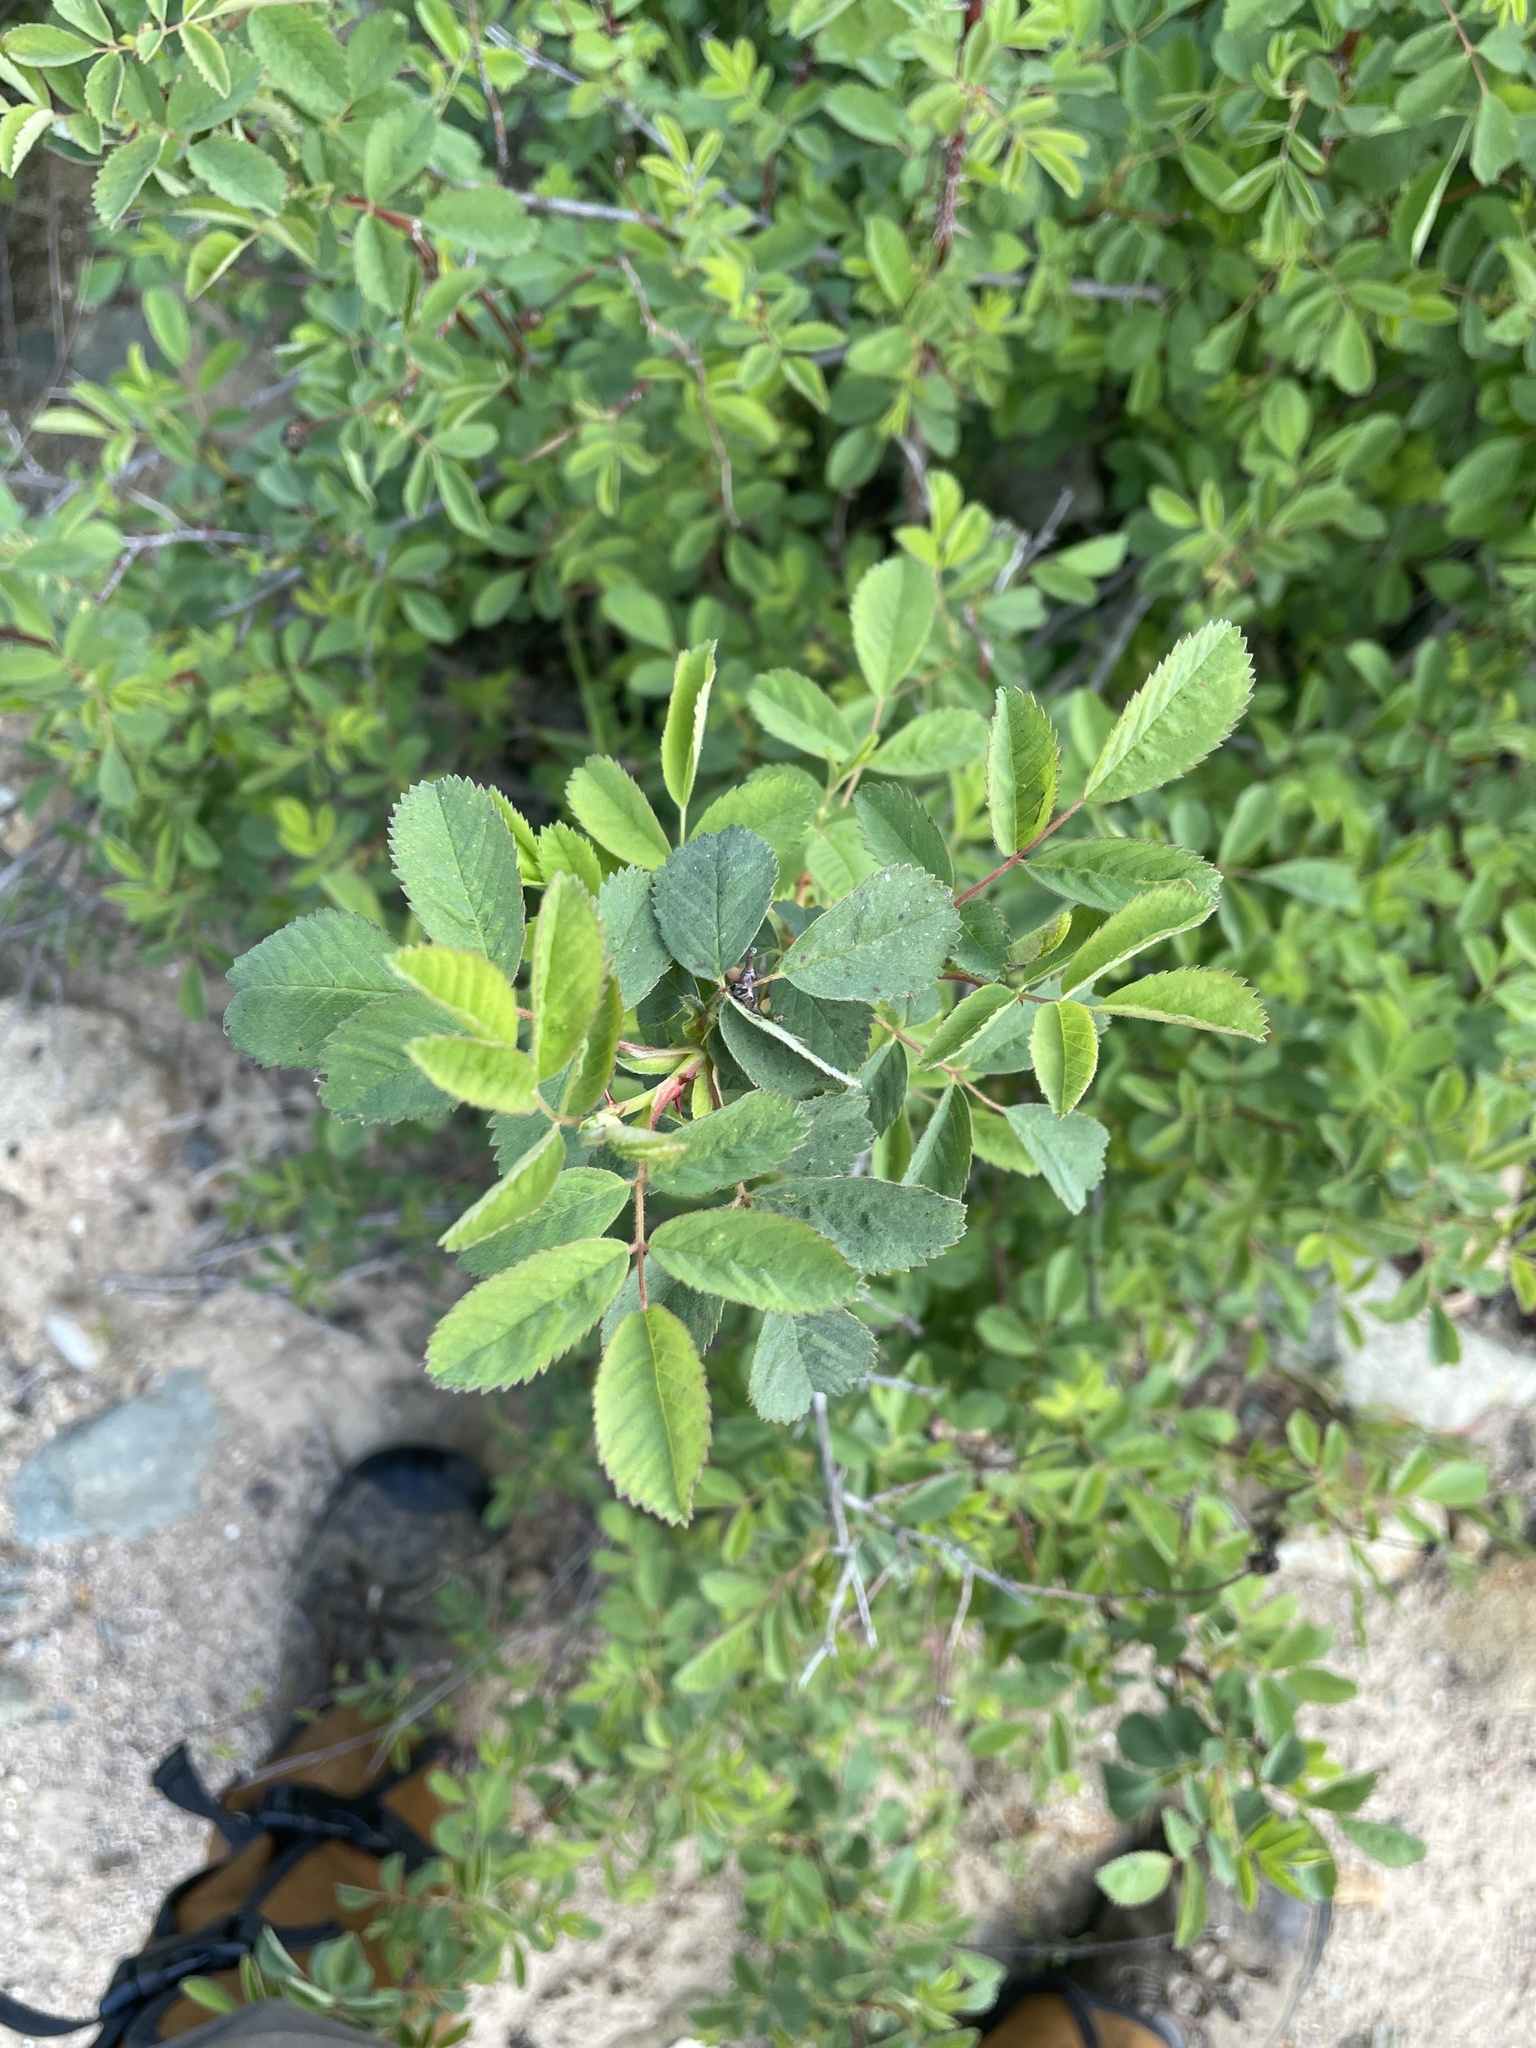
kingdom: Plantae
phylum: Tracheophyta
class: Magnoliopsida
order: Rosales
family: Rosaceae
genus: Rosa
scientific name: Rosa californica
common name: California rose
